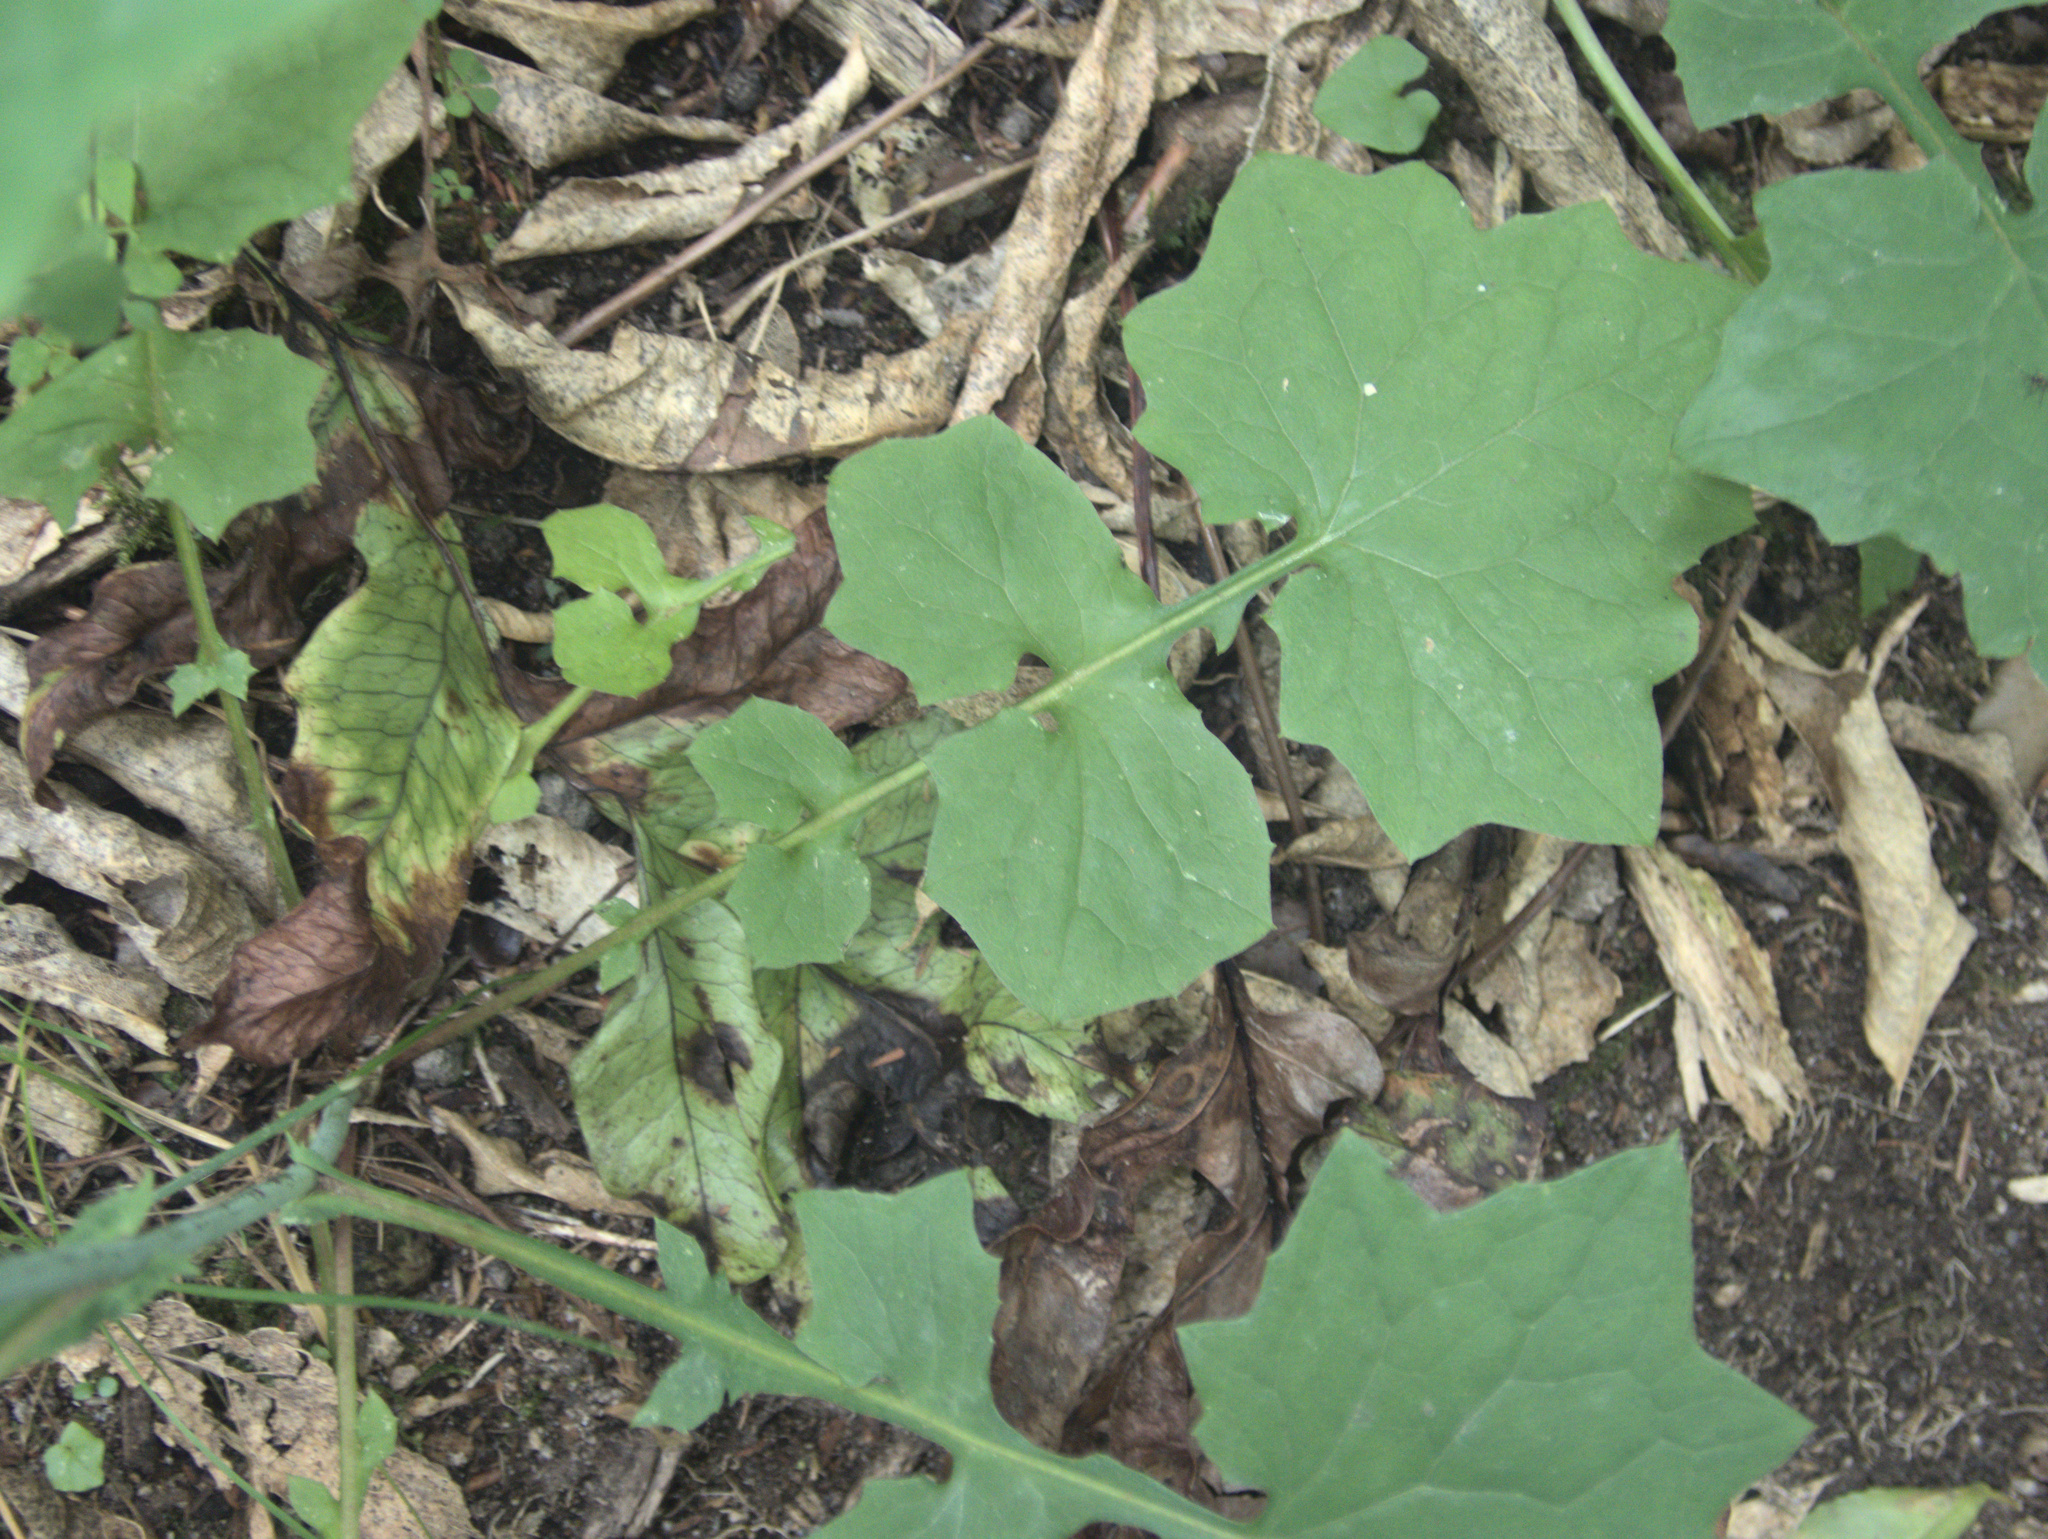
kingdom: Plantae
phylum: Tracheophyta
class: Magnoliopsida
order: Asterales
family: Asteraceae
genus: Mycelis
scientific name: Mycelis muralis
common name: Wall lettuce
